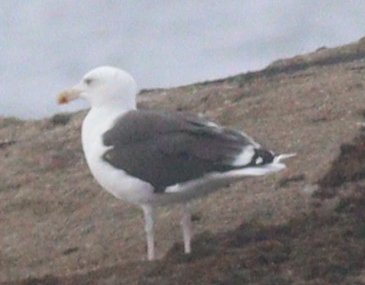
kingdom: Animalia
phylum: Chordata
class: Aves
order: Charadriiformes
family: Laridae
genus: Larus
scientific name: Larus marinus
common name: Great black-backed gull
